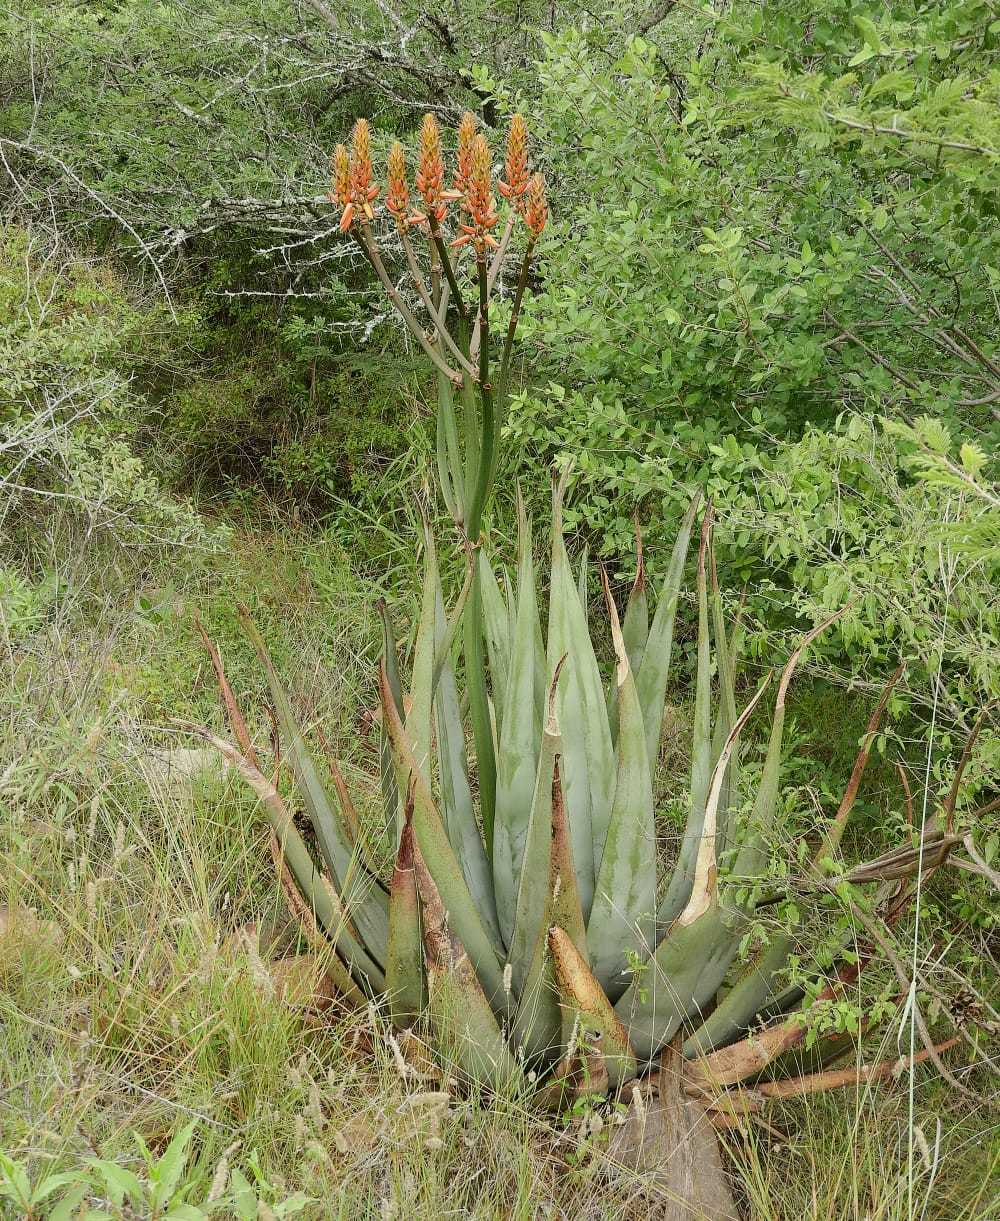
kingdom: Plantae
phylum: Tracheophyta
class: Liliopsida
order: Asparagales
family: Asphodelaceae
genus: Aloe
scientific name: Aloe pienaarii
